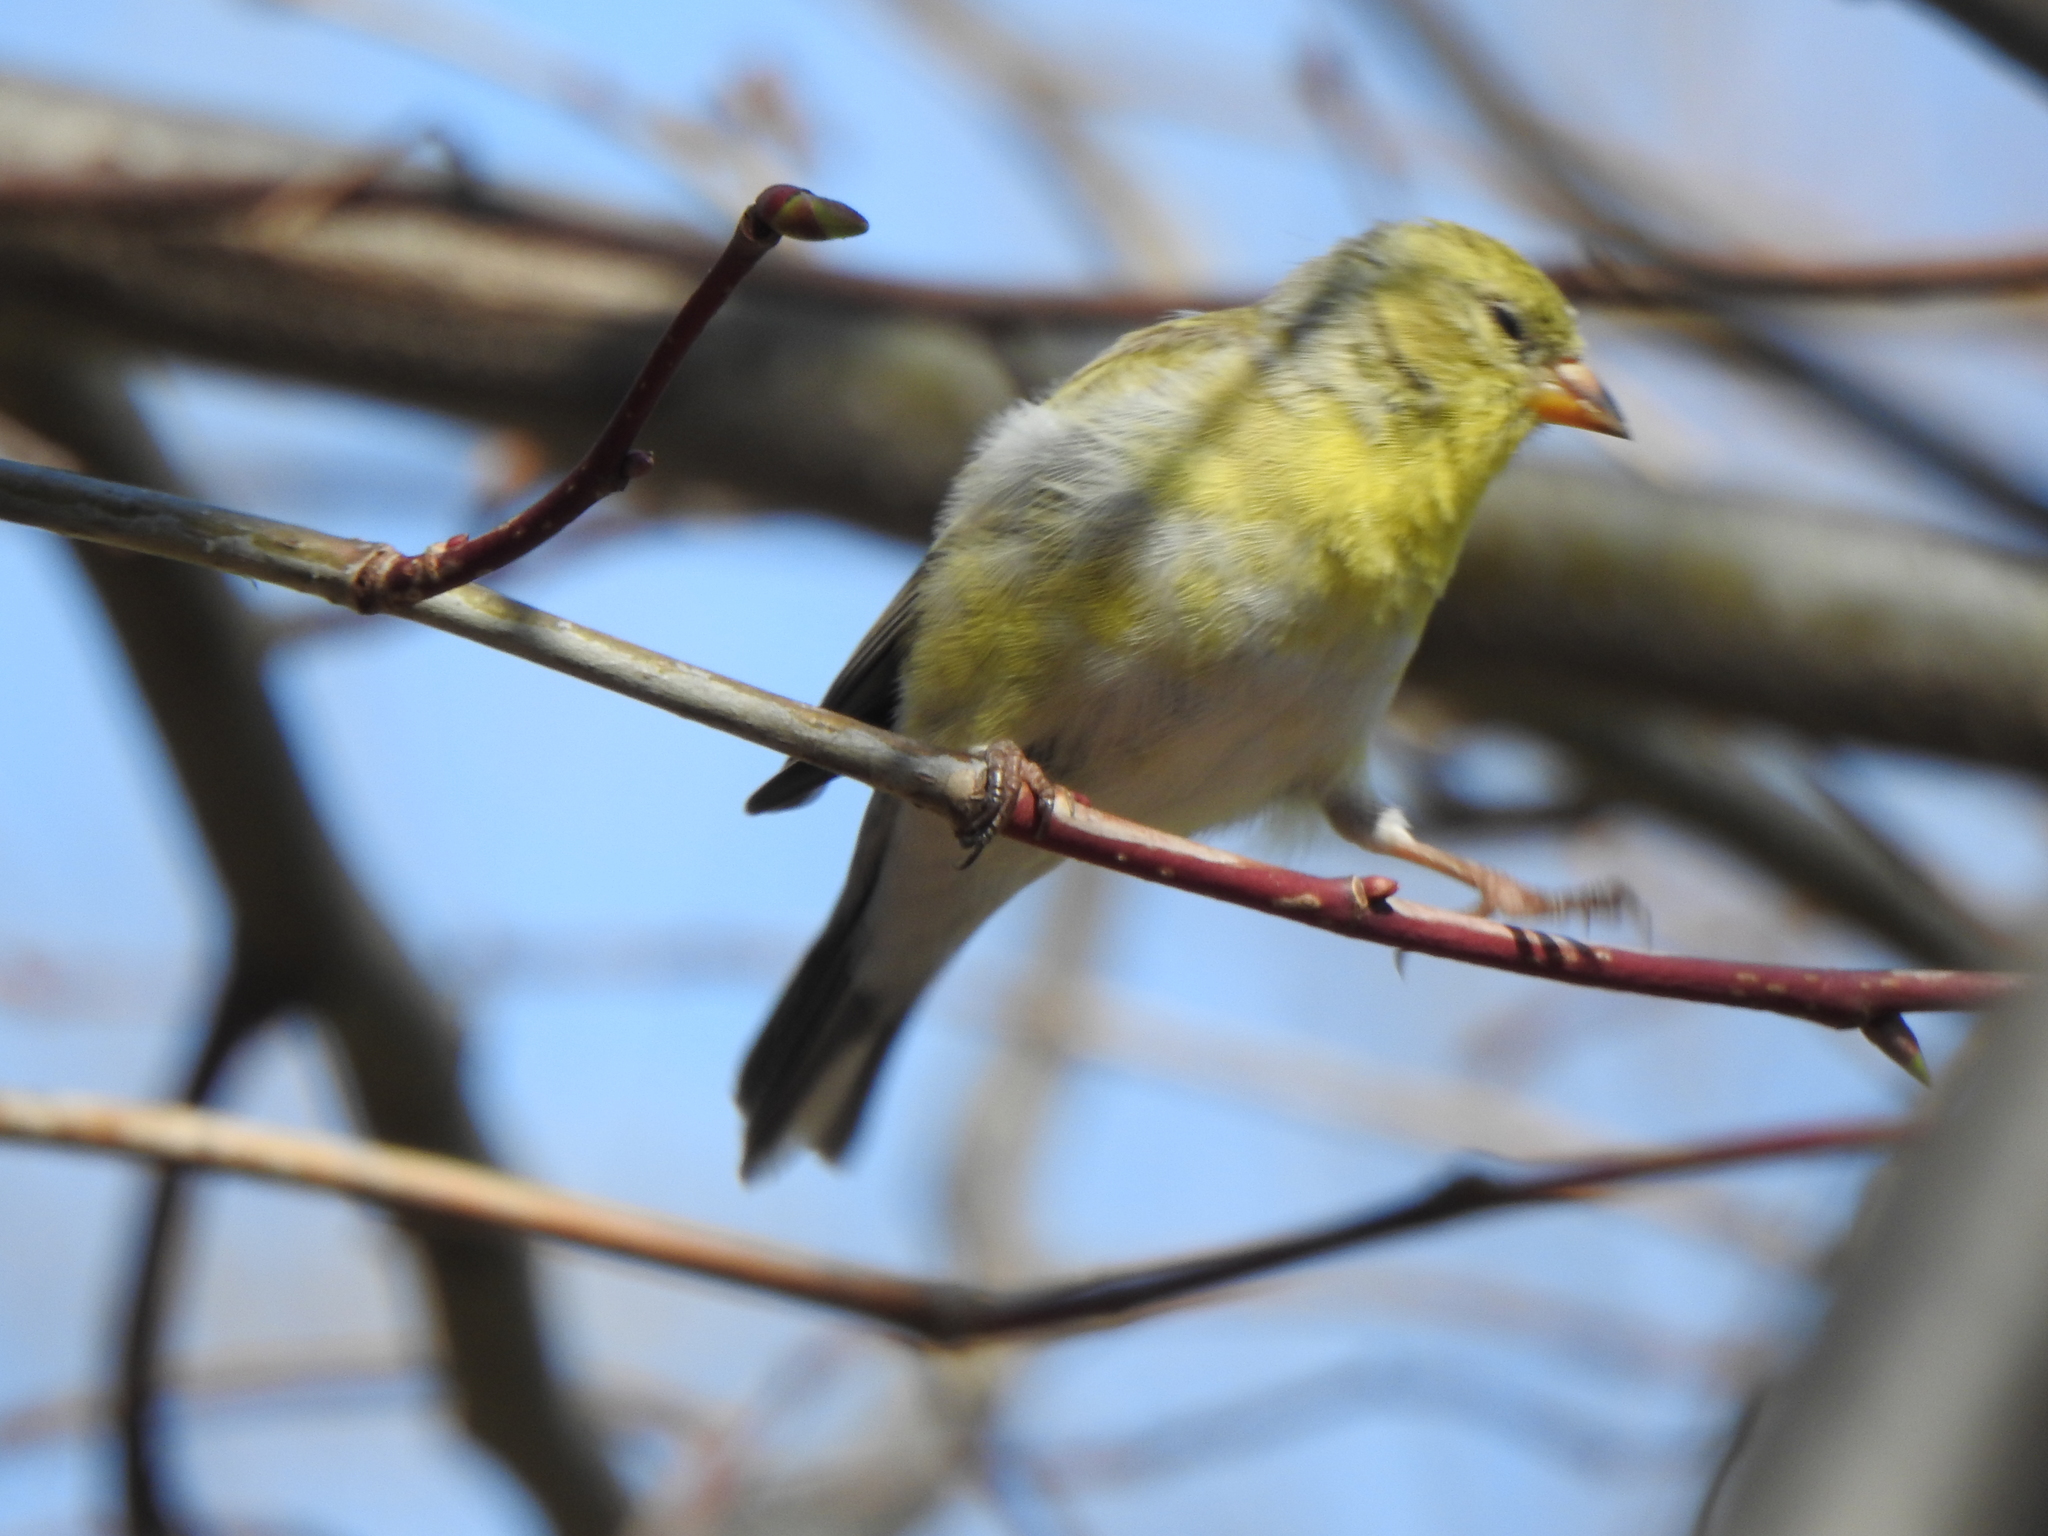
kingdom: Animalia
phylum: Chordata
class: Aves
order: Passeriformes
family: Fringillidae
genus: Spinus
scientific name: Spinus tristis
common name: American goldfinch
